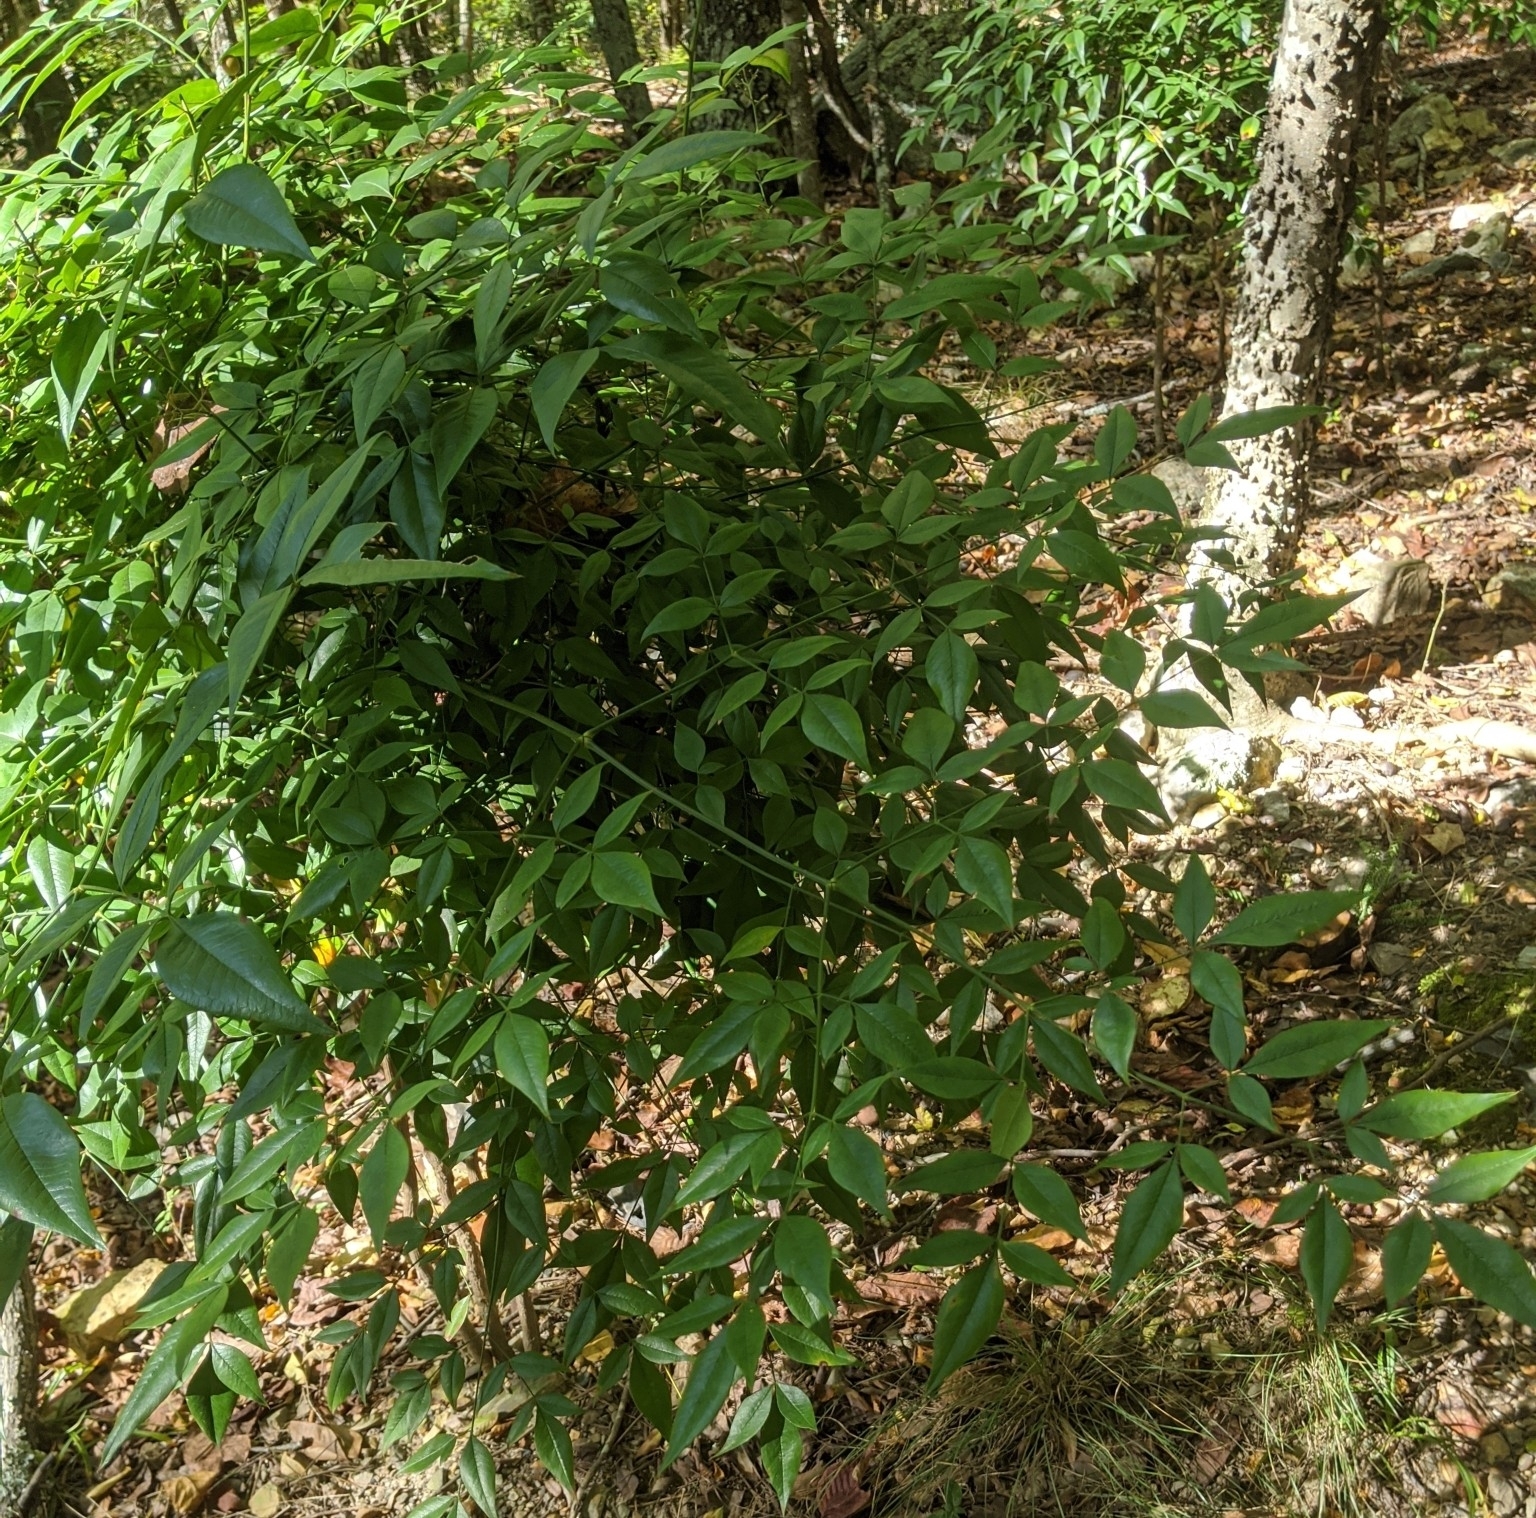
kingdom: Plantae
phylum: Tracheophyta
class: Magnoliopsida
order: Ranunculales
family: Berberidaceae
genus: Nandina
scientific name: Nandina domestica
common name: Sacred bamboo
